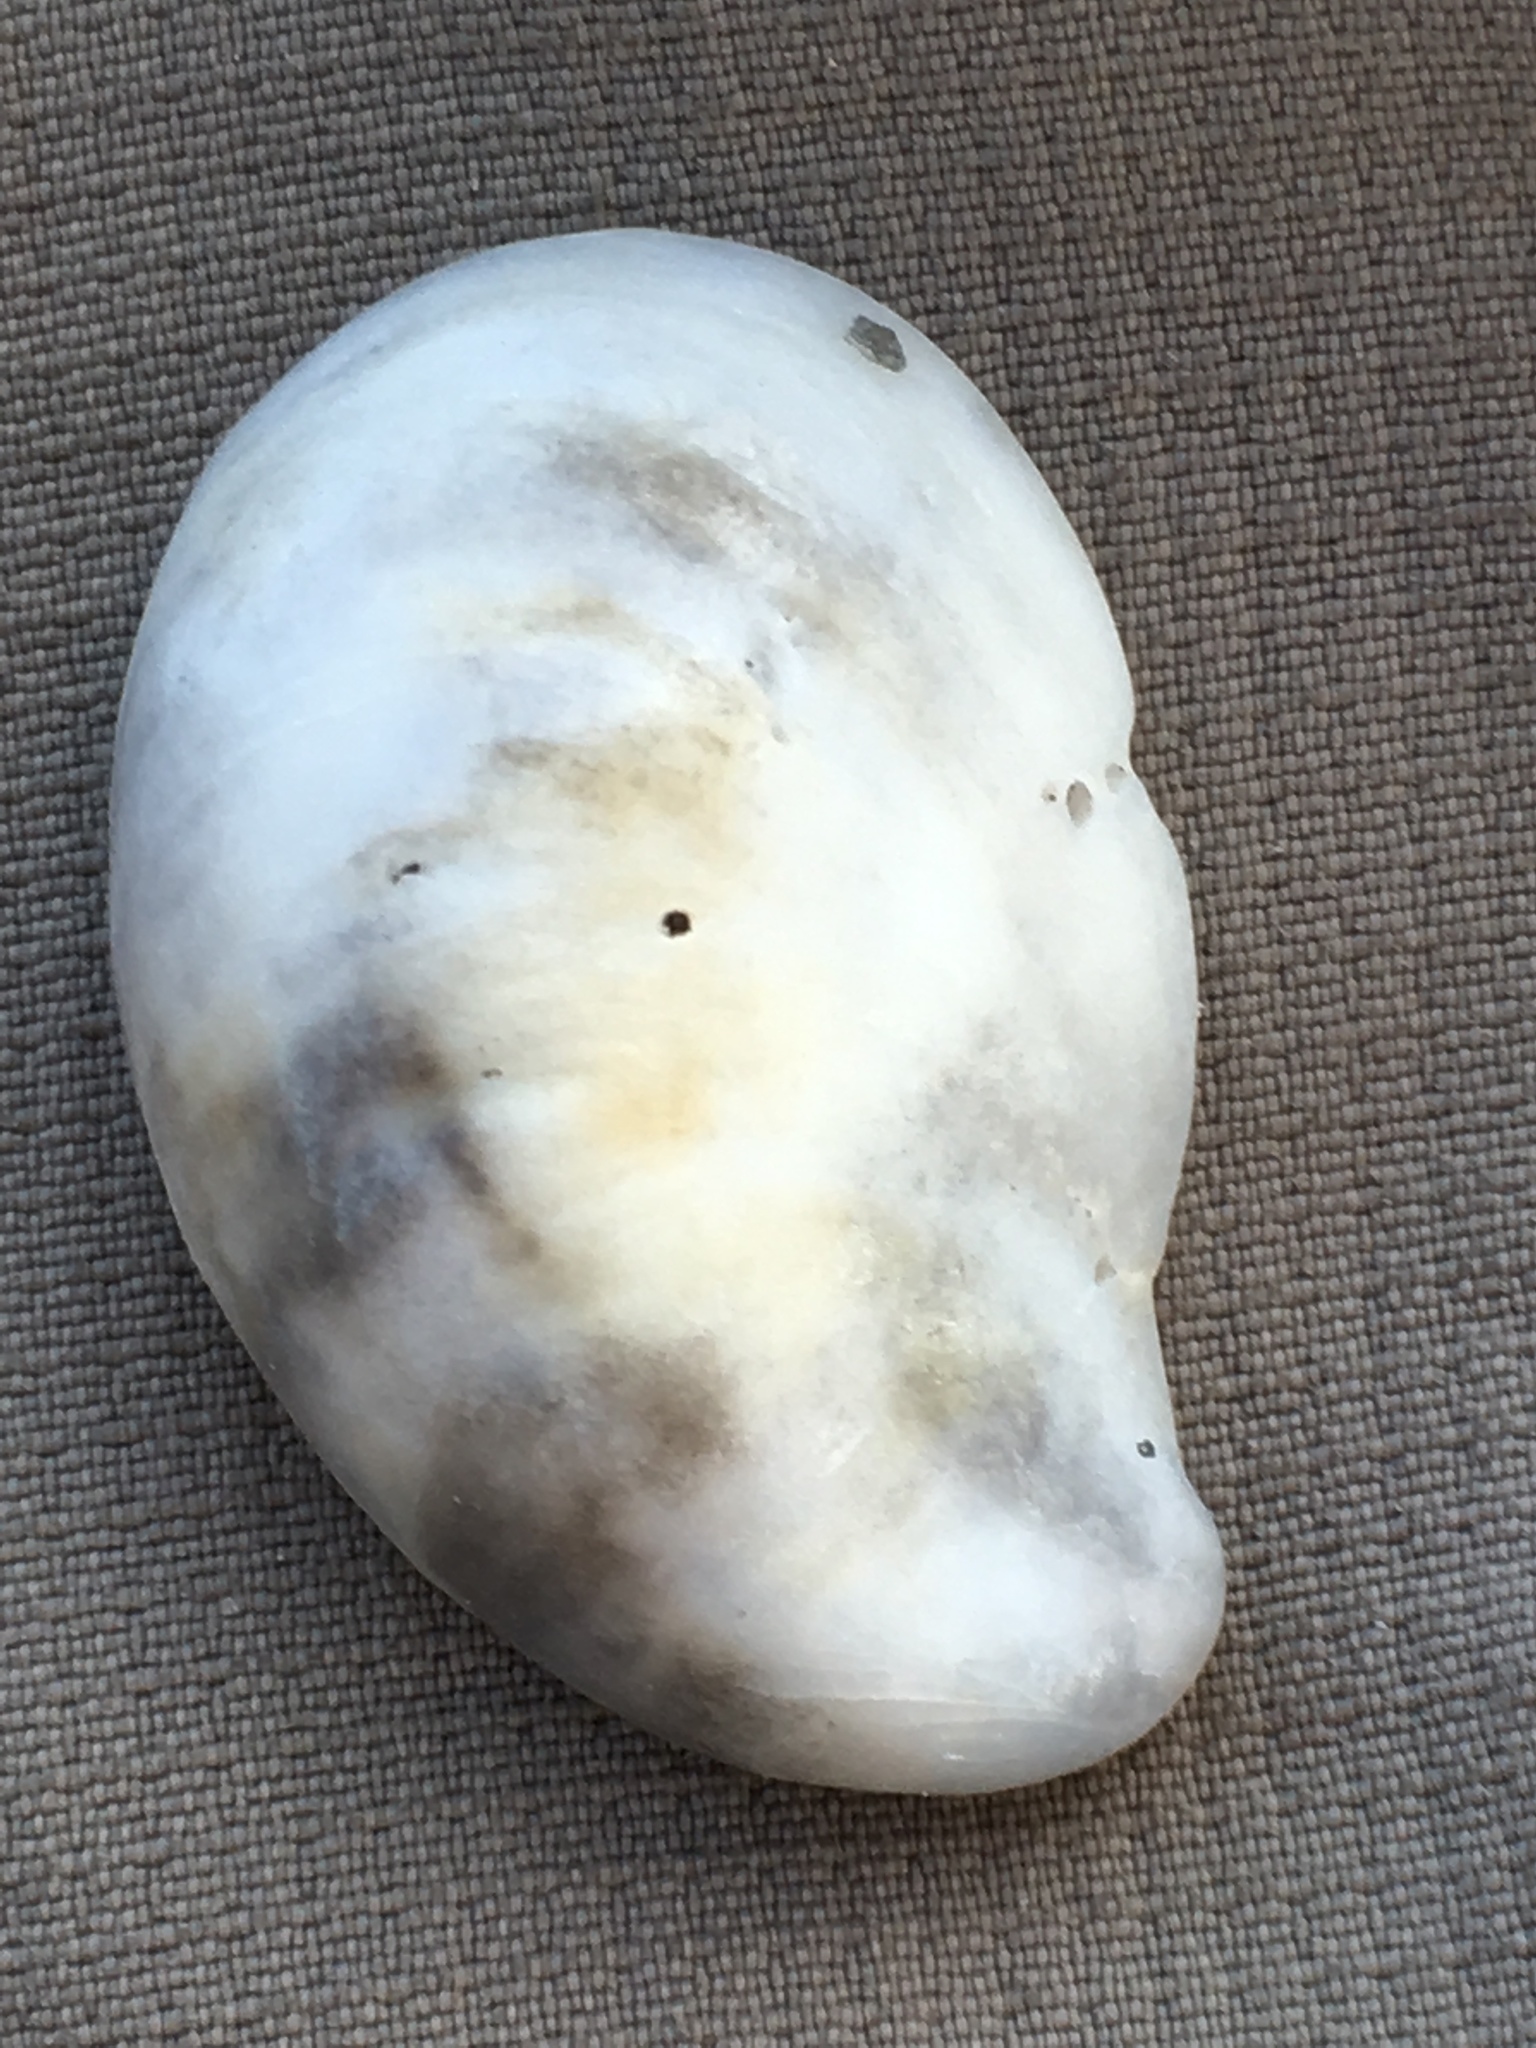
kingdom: Animalia
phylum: Mollusca
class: Gastropoda
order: Littorinimorpha
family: Calyptraeidae
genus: Crepidula
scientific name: Crepidula fornicata
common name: Slipper limpet
